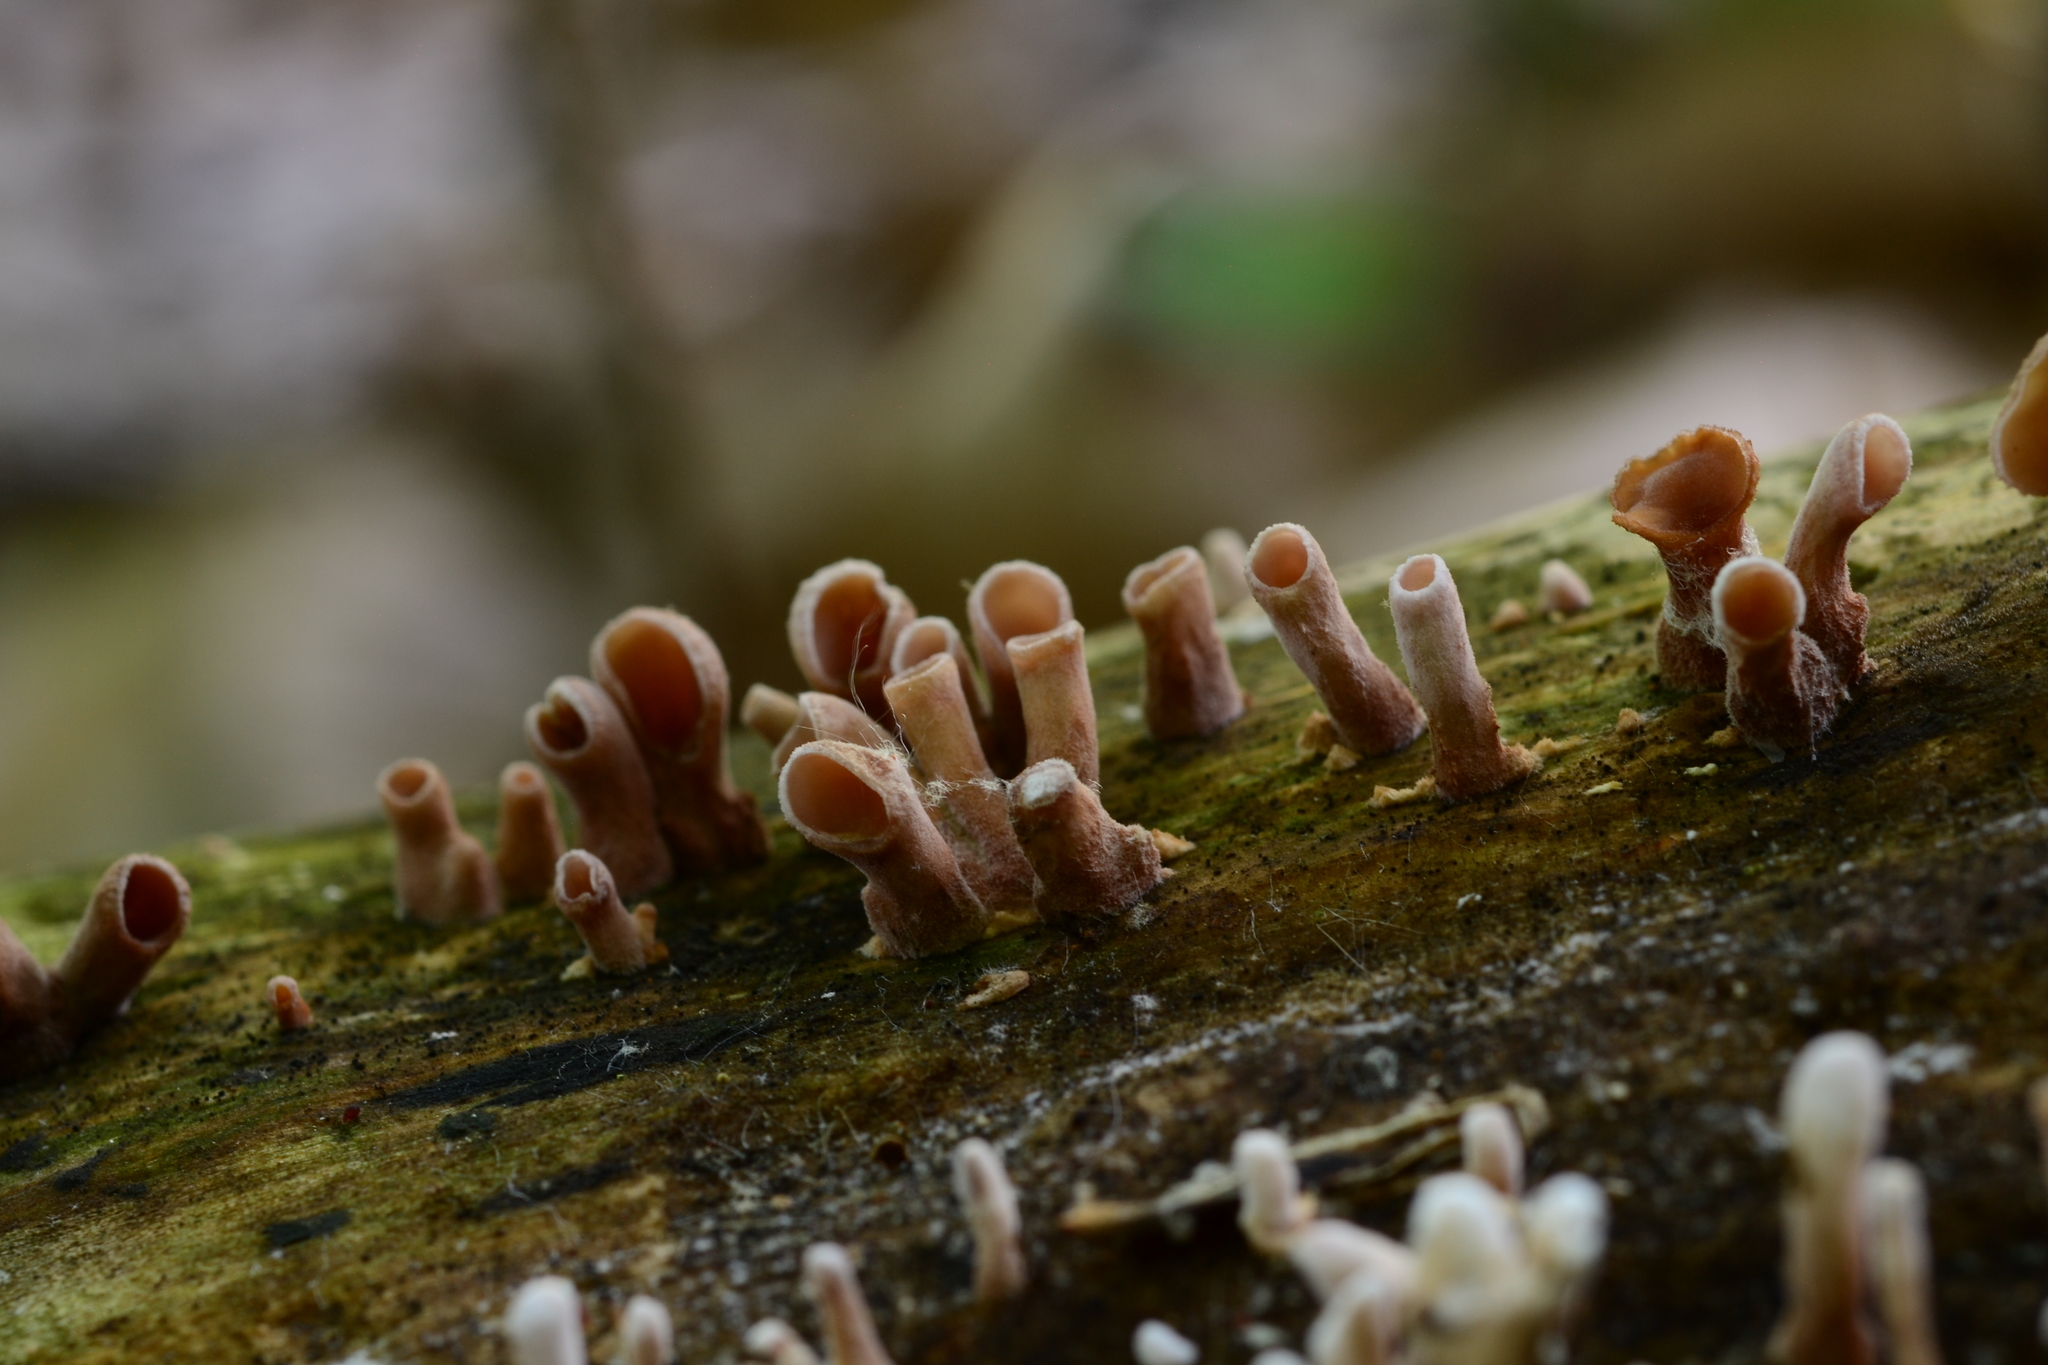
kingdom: Fungi
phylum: Basidiomycota
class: Dacrymycetes
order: Dacrymycetales
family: Dacrymycetaceae
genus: Dacryopinax
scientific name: Dacryopinax elegans
